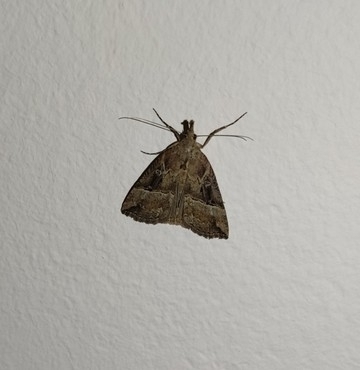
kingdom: Animalia
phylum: Arthropoda
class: Insecta
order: Lepidoptera
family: Erebidae
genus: Hypena
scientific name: Hypena rostralis
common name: Buttoned snout
